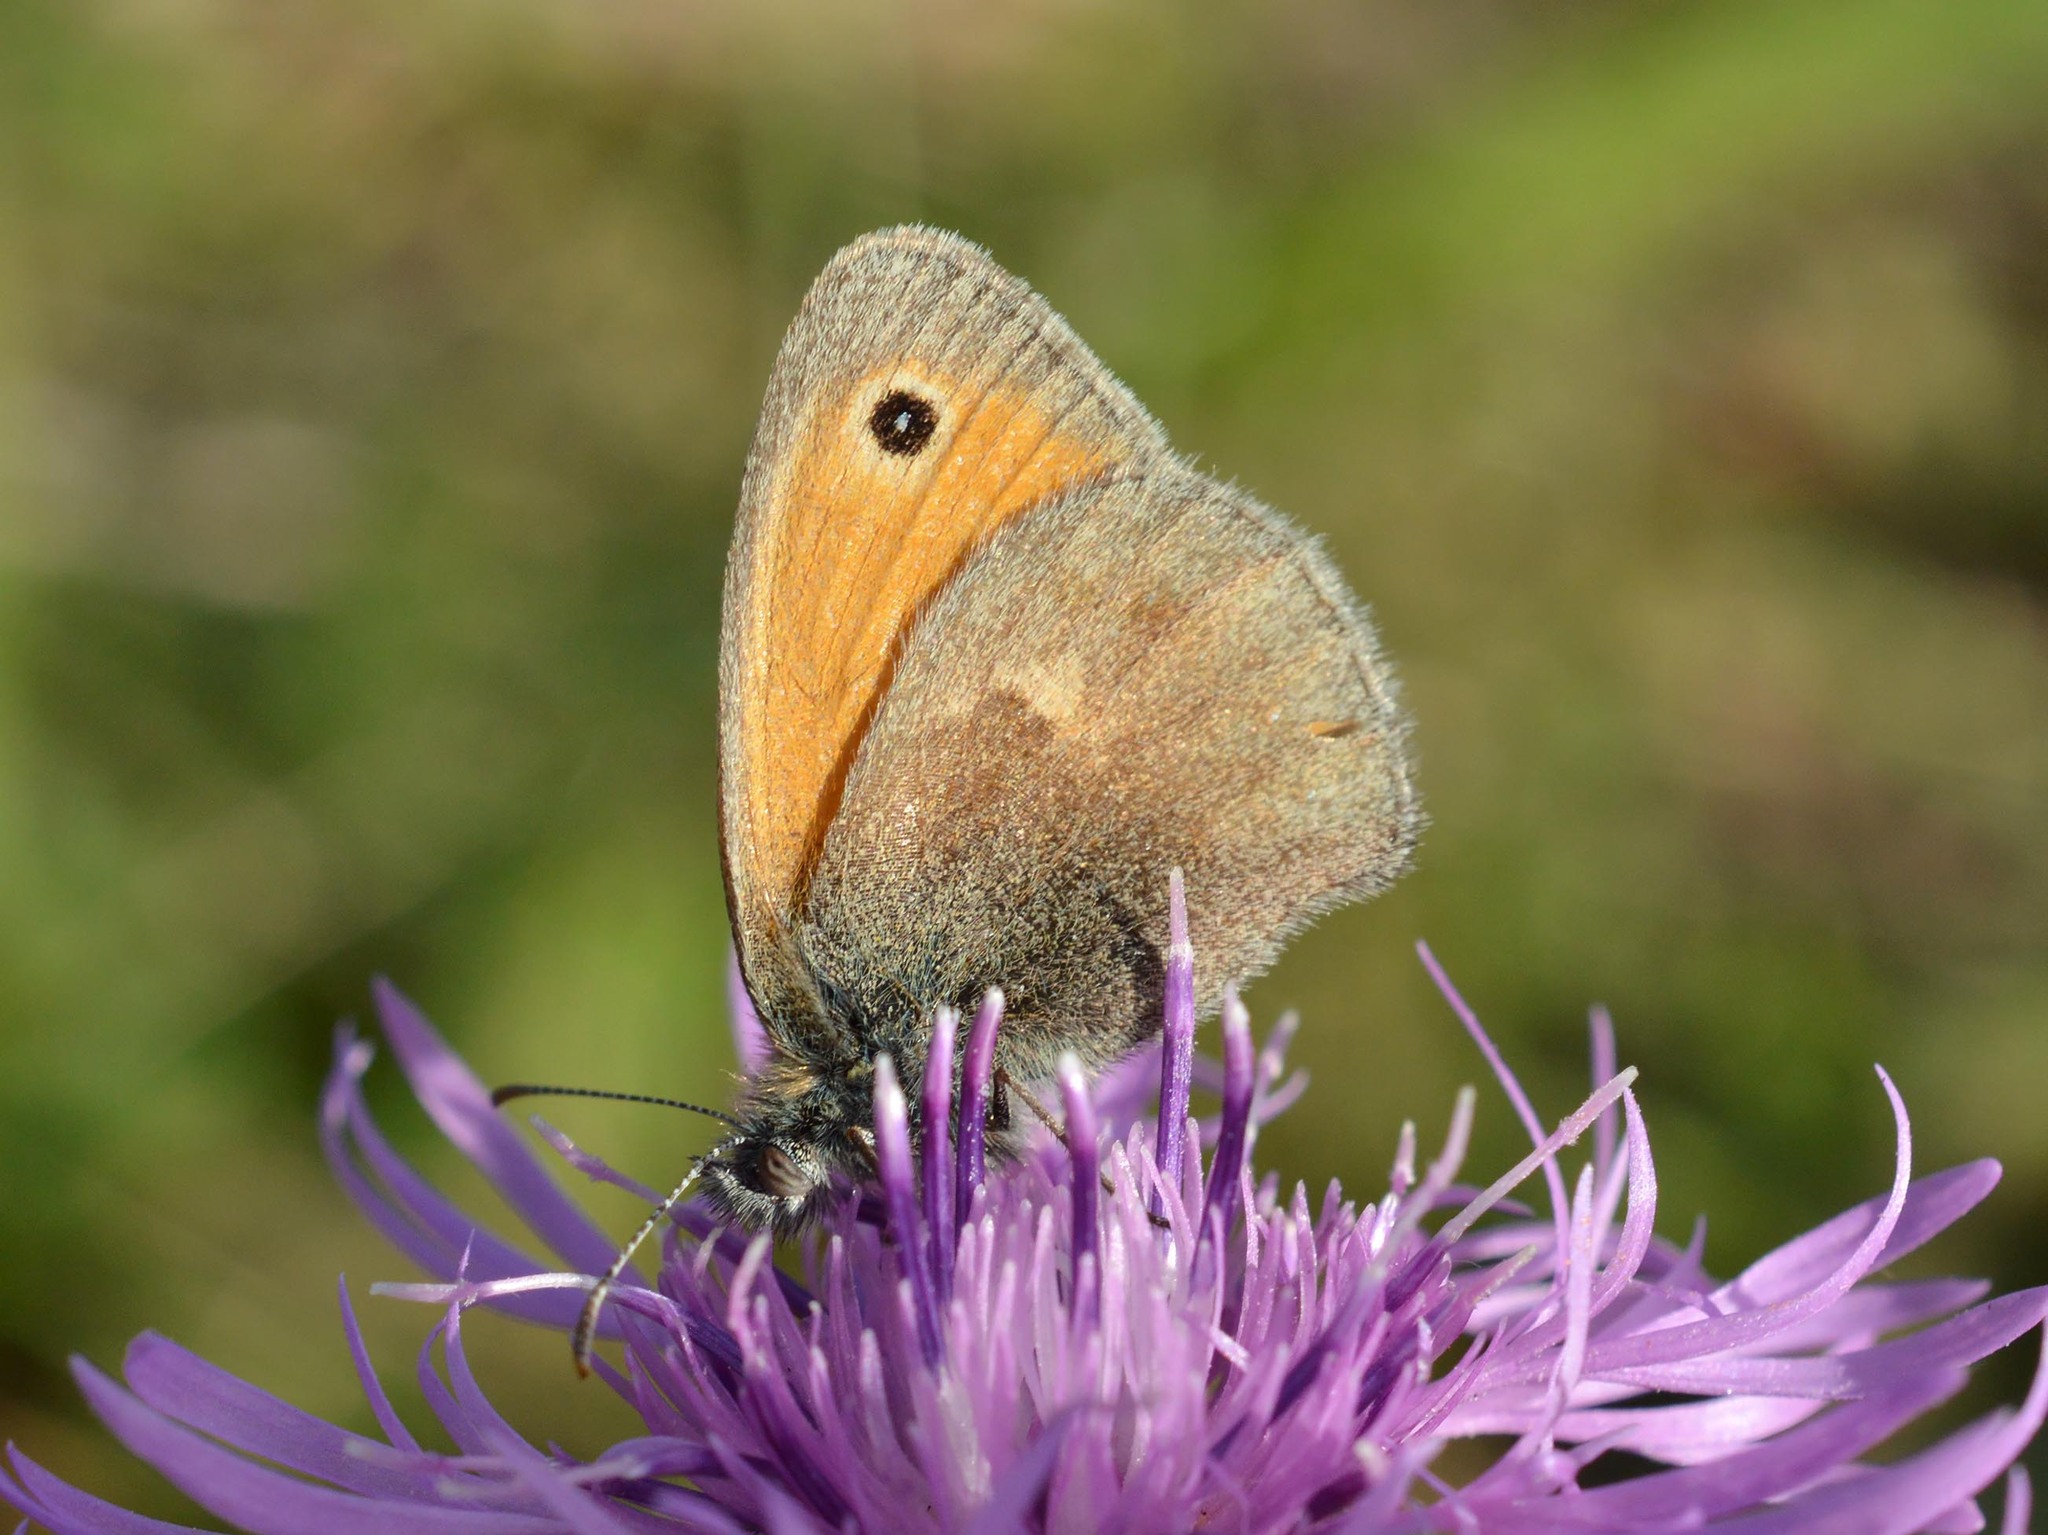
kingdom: Animalia
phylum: Arthropoda
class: Insecta
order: Lepidoptera
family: Nymphalidae
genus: Coenonympha
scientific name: Coenonympha pamphilus
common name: Small heath
